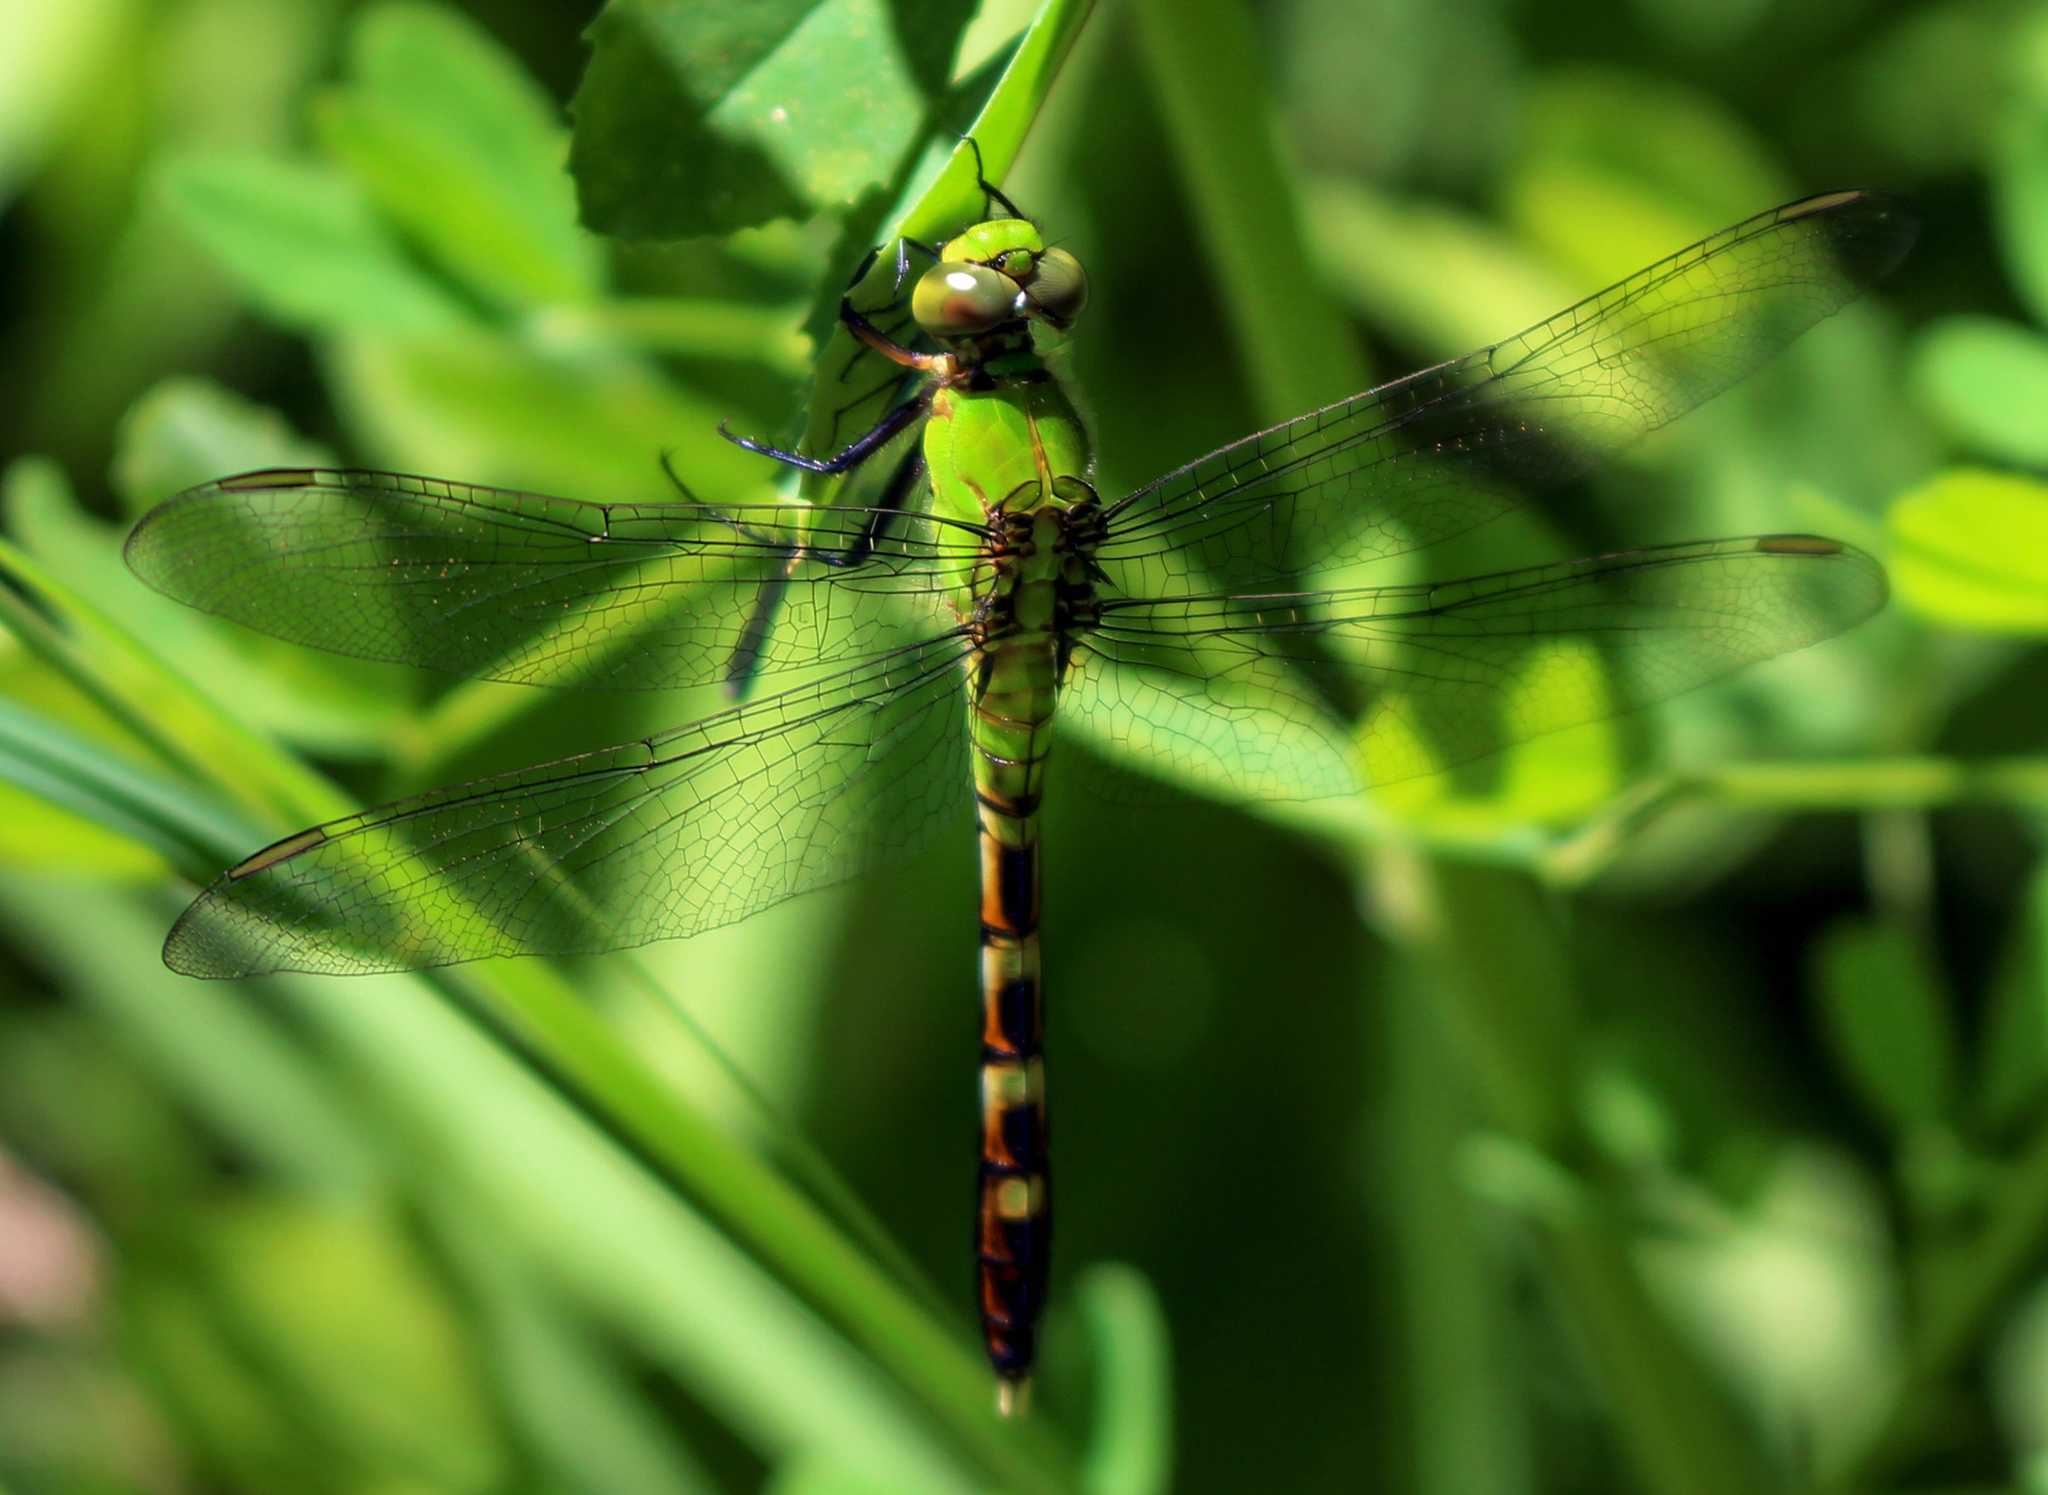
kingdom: Animalia
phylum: Arthropoda
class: Insecta
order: Odonata
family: Libellulidae
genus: Erythemis
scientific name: Erythemis simplicicollis
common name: Eastern pondhawk
